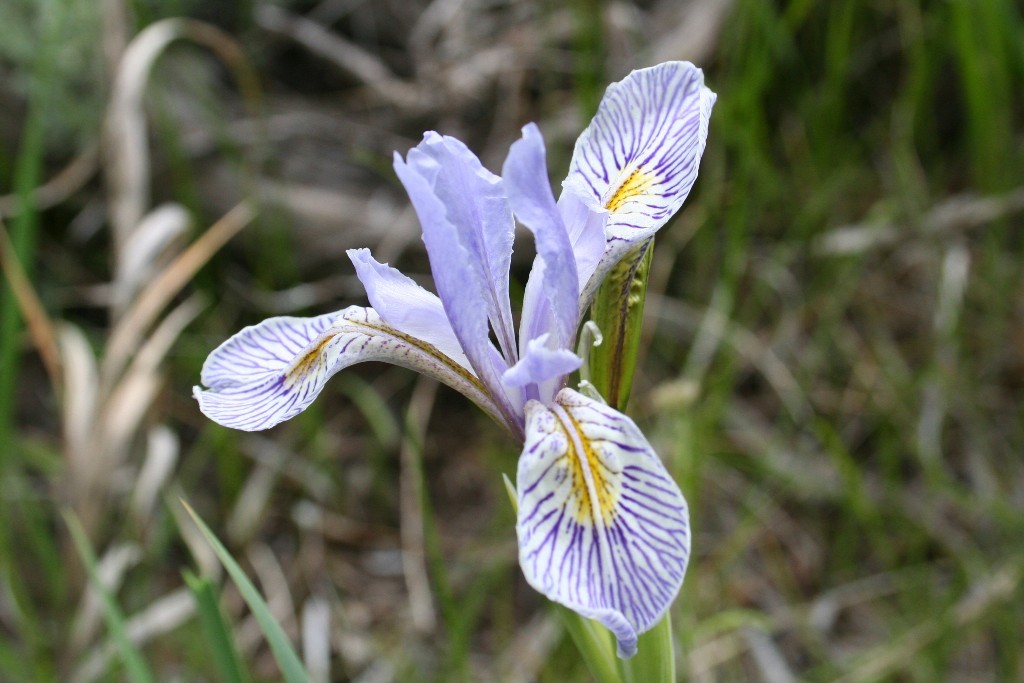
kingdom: Plantae
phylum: Tracheophyta
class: Liliopsida
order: Asparagales
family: Iridaceae
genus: Iris
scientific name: Iris missouriensis
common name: Rocky mountain iris
